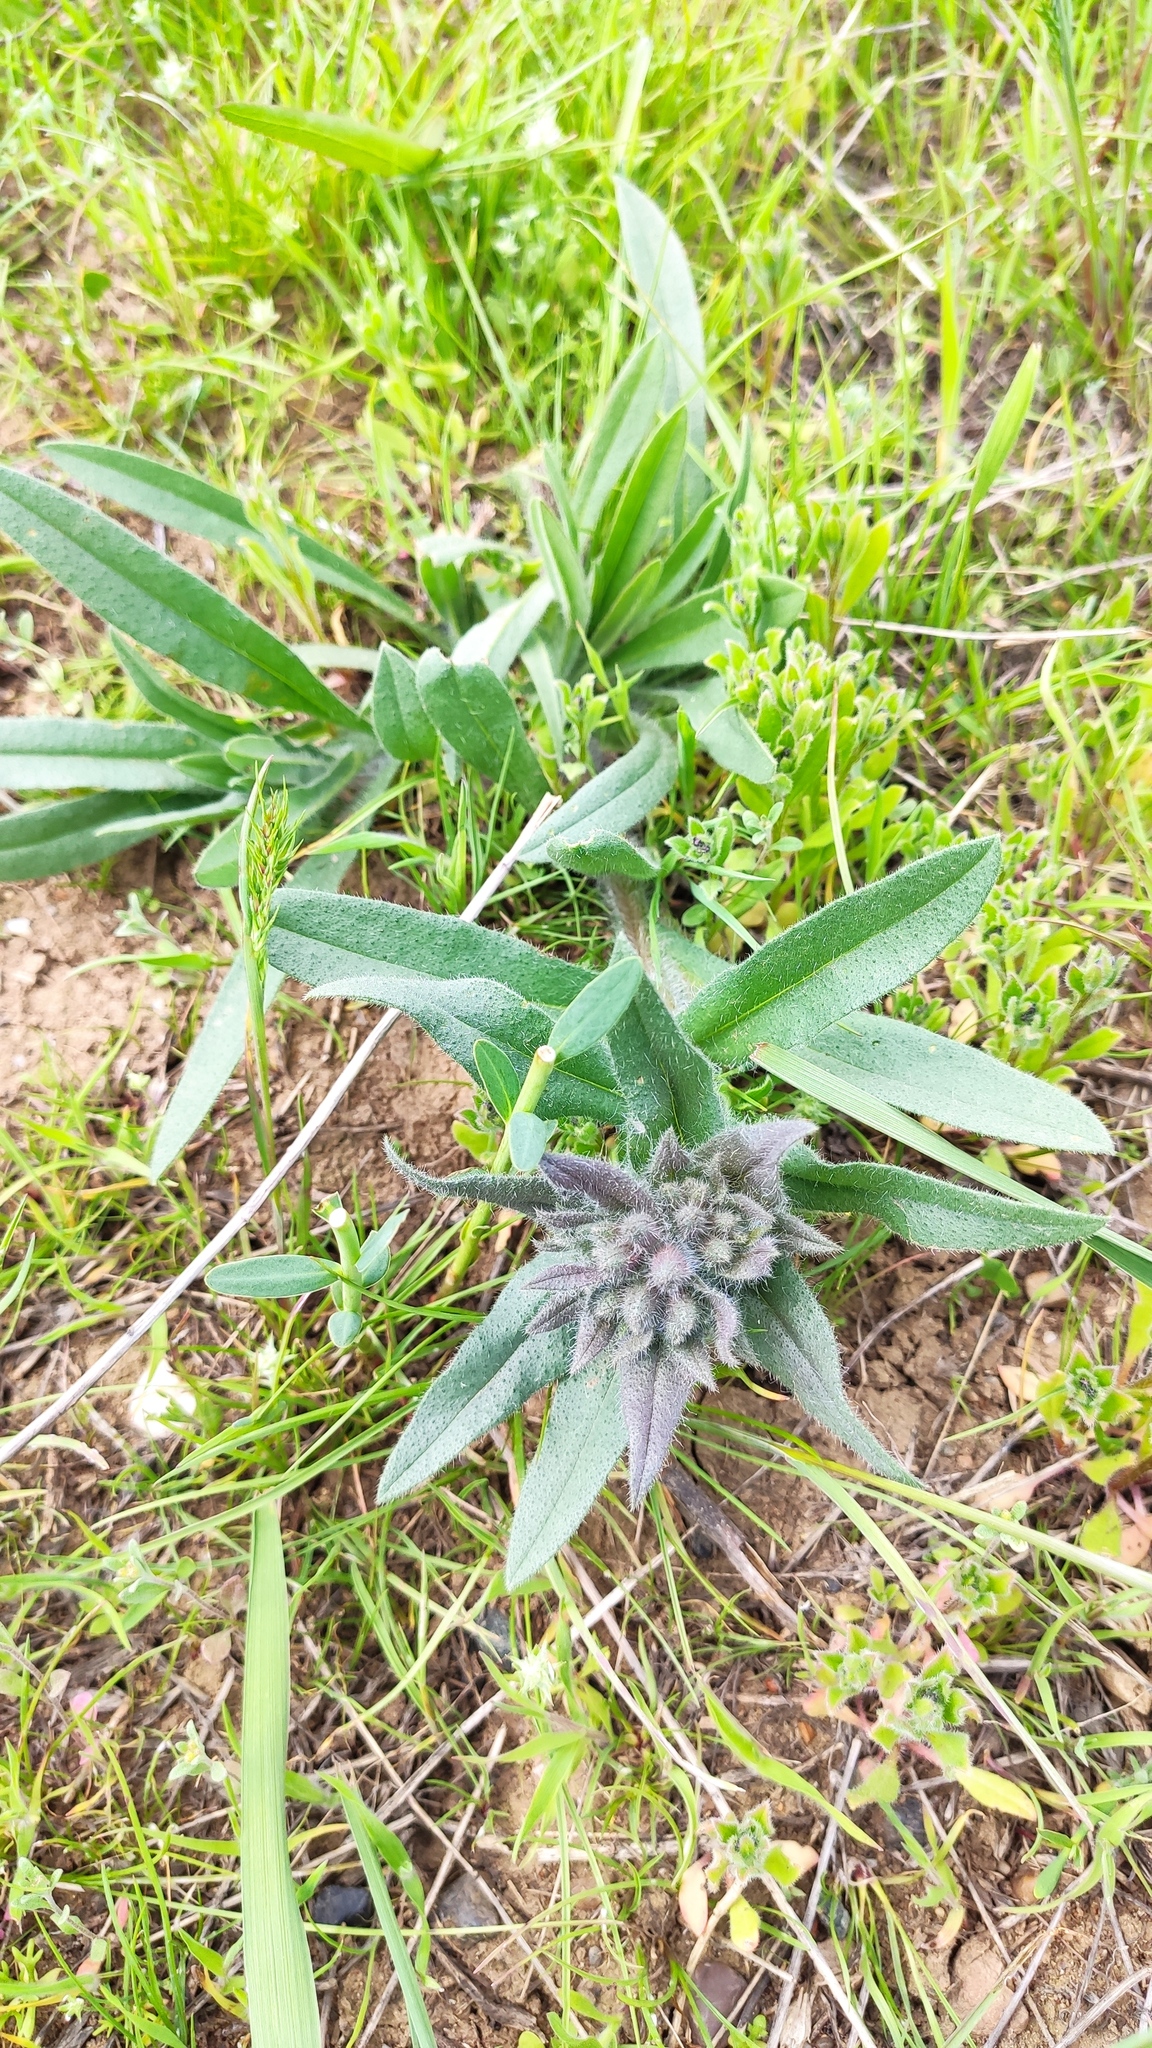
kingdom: Plantae
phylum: Tracheophyta
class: Magnoliopsida
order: Boraginales
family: Boraginaceae
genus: Nonea
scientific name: Nonea pulla
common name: Brown nonea
